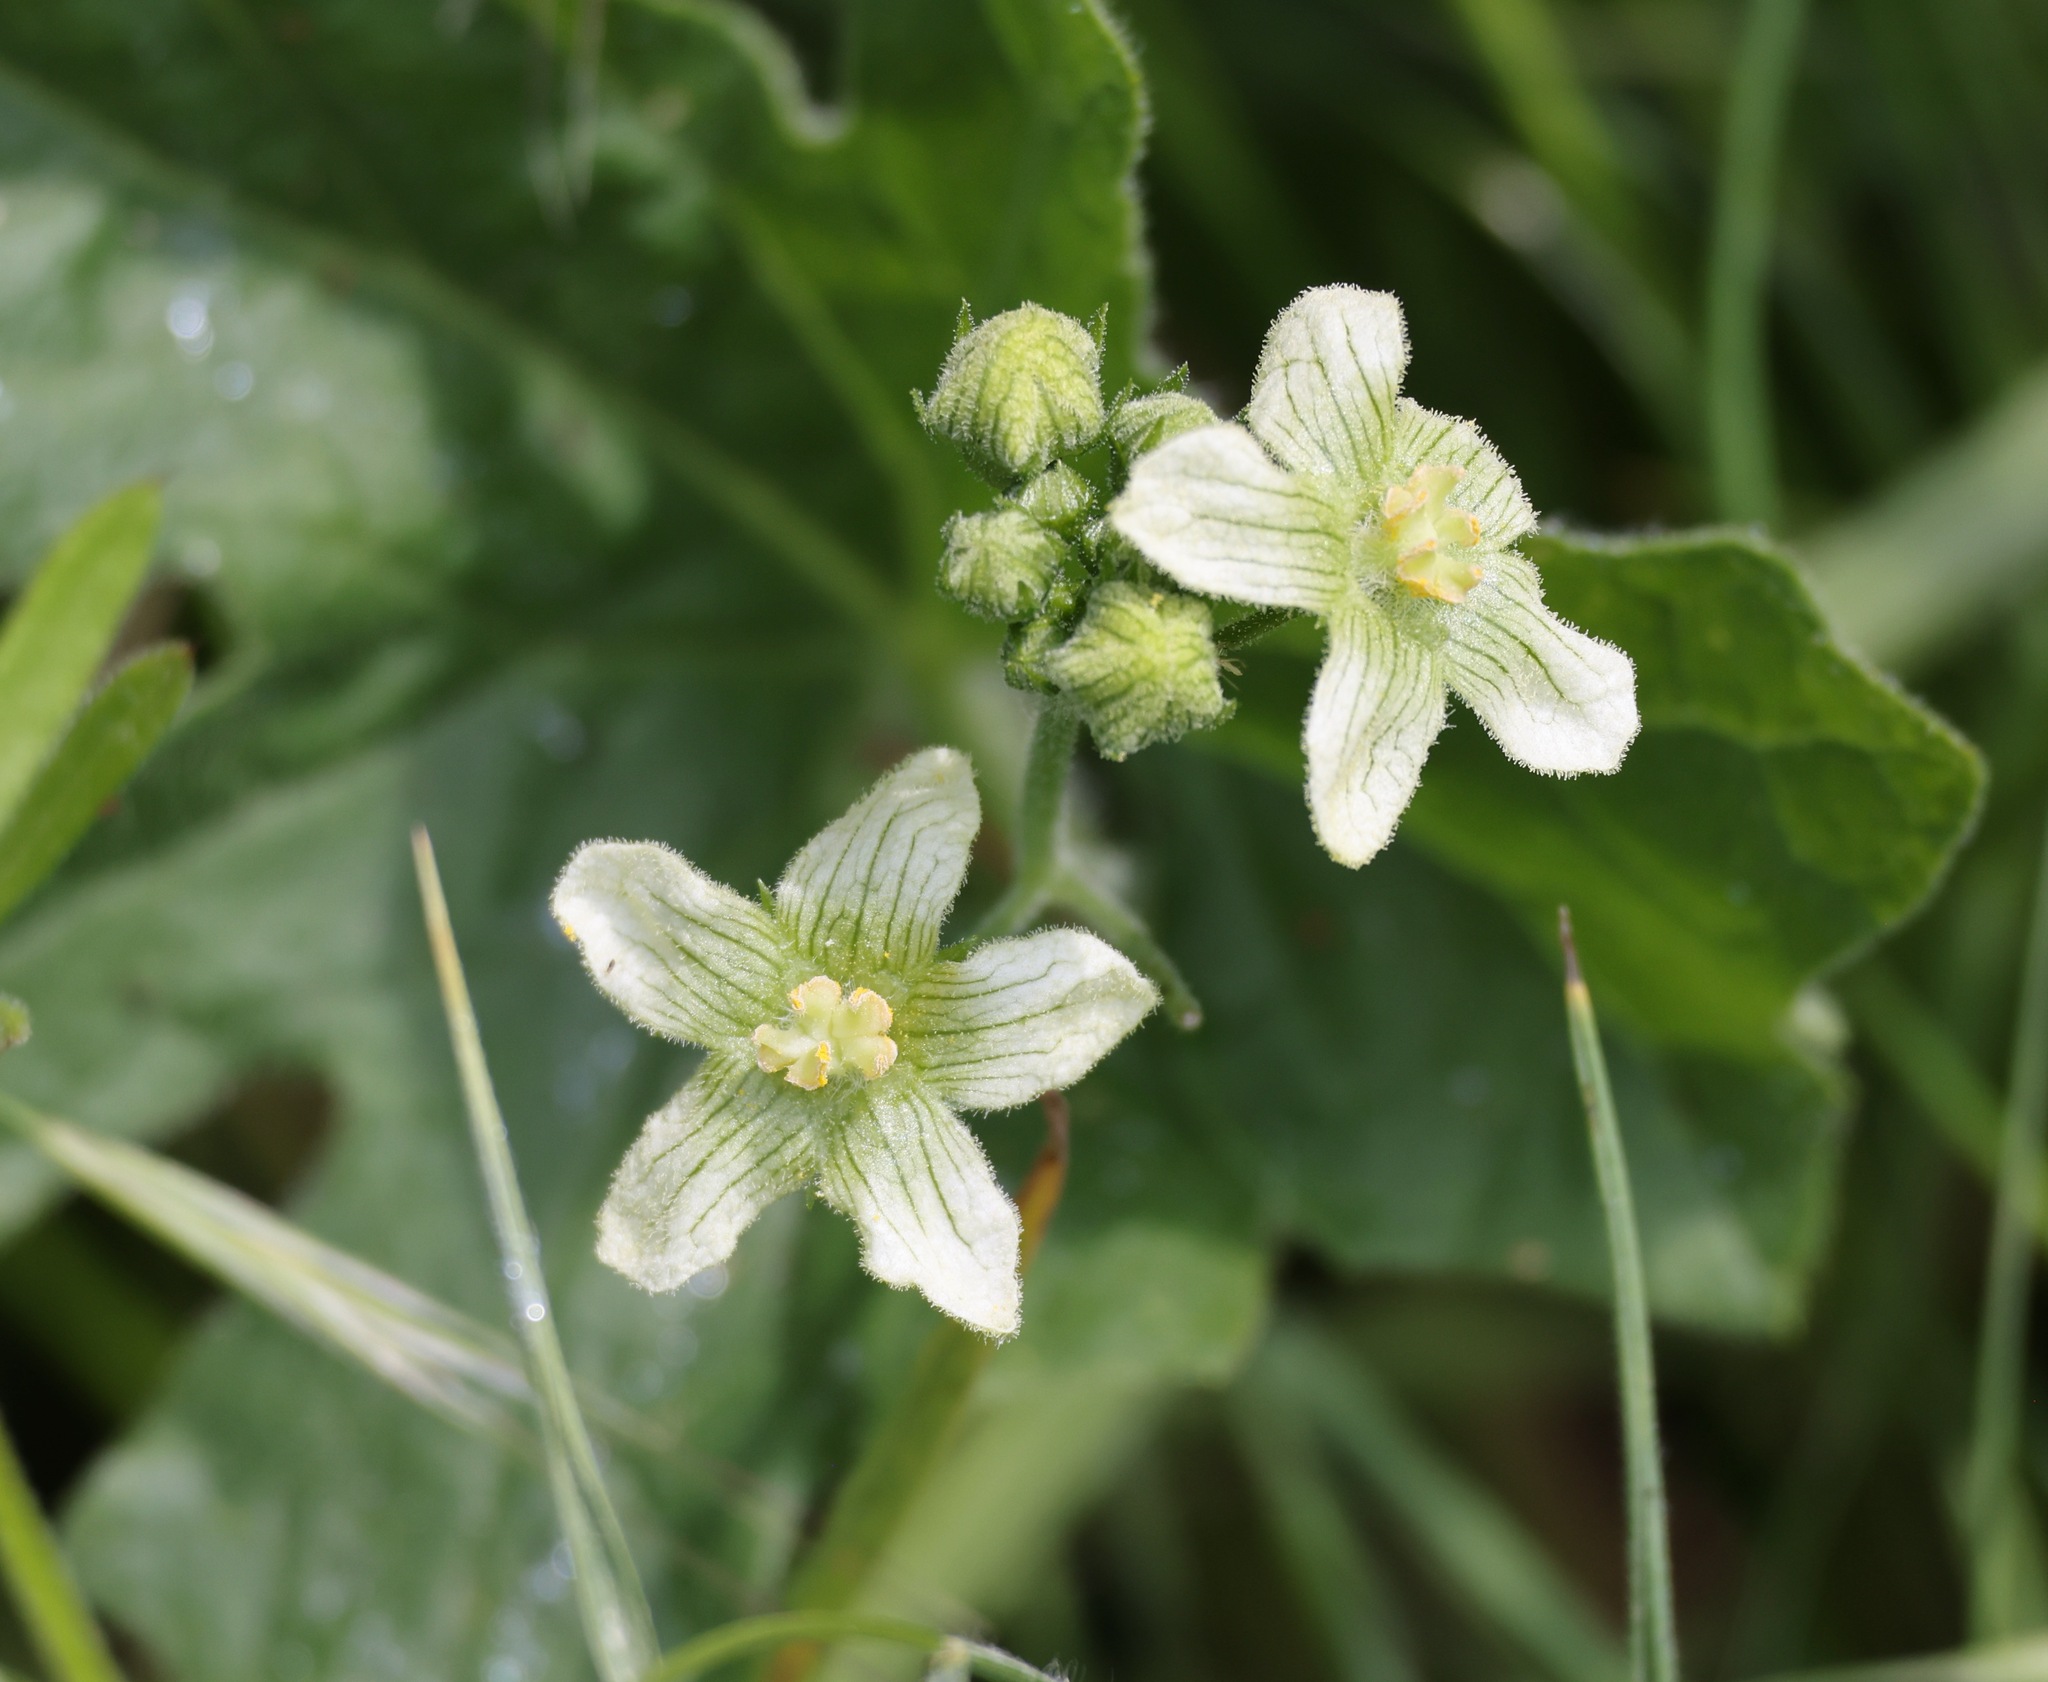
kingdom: Plantae
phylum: Tracheophyta
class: Magnoliopsida
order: Cucurbitales
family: Cucurbitaceae
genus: Bryonia
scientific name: Bryonia cretica
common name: Cretan bryony
